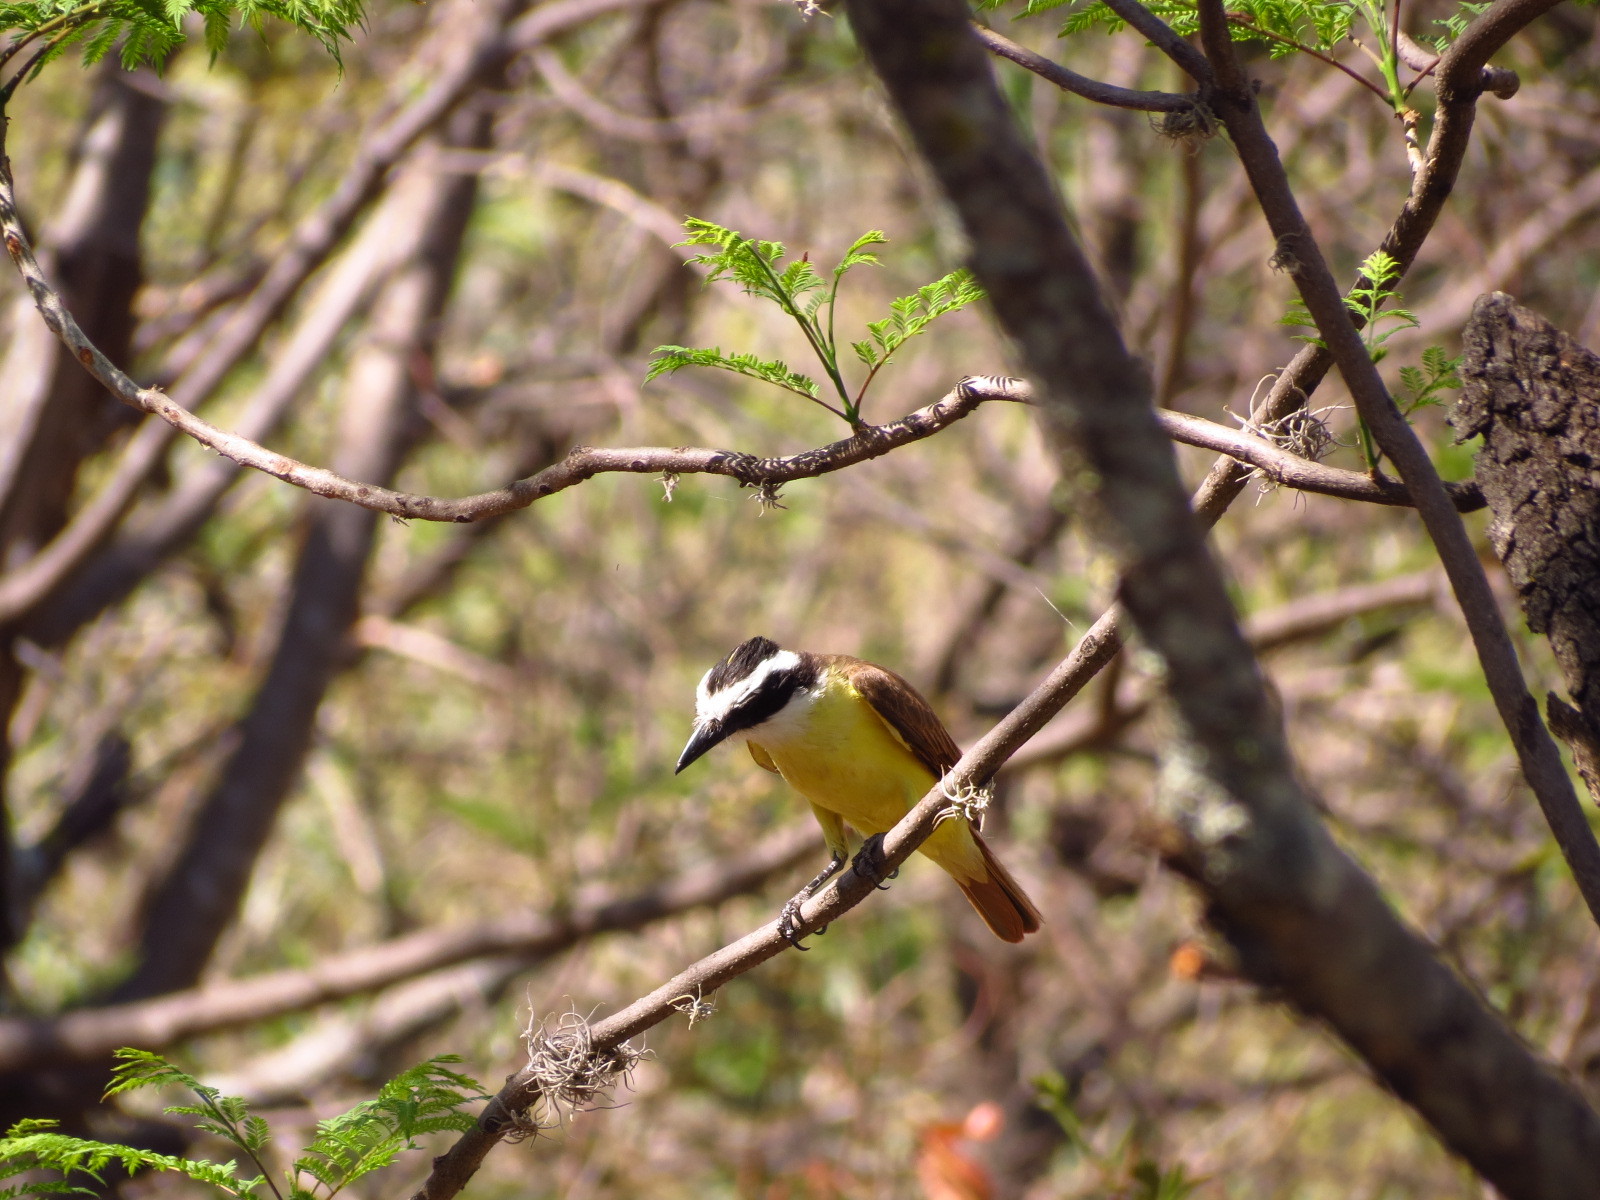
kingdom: Animalia
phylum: Chordata
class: Aves
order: Passeriformes
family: Tyrannidae
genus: Pitangus
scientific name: Pitangus sulphuratus
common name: Great kiskadee
